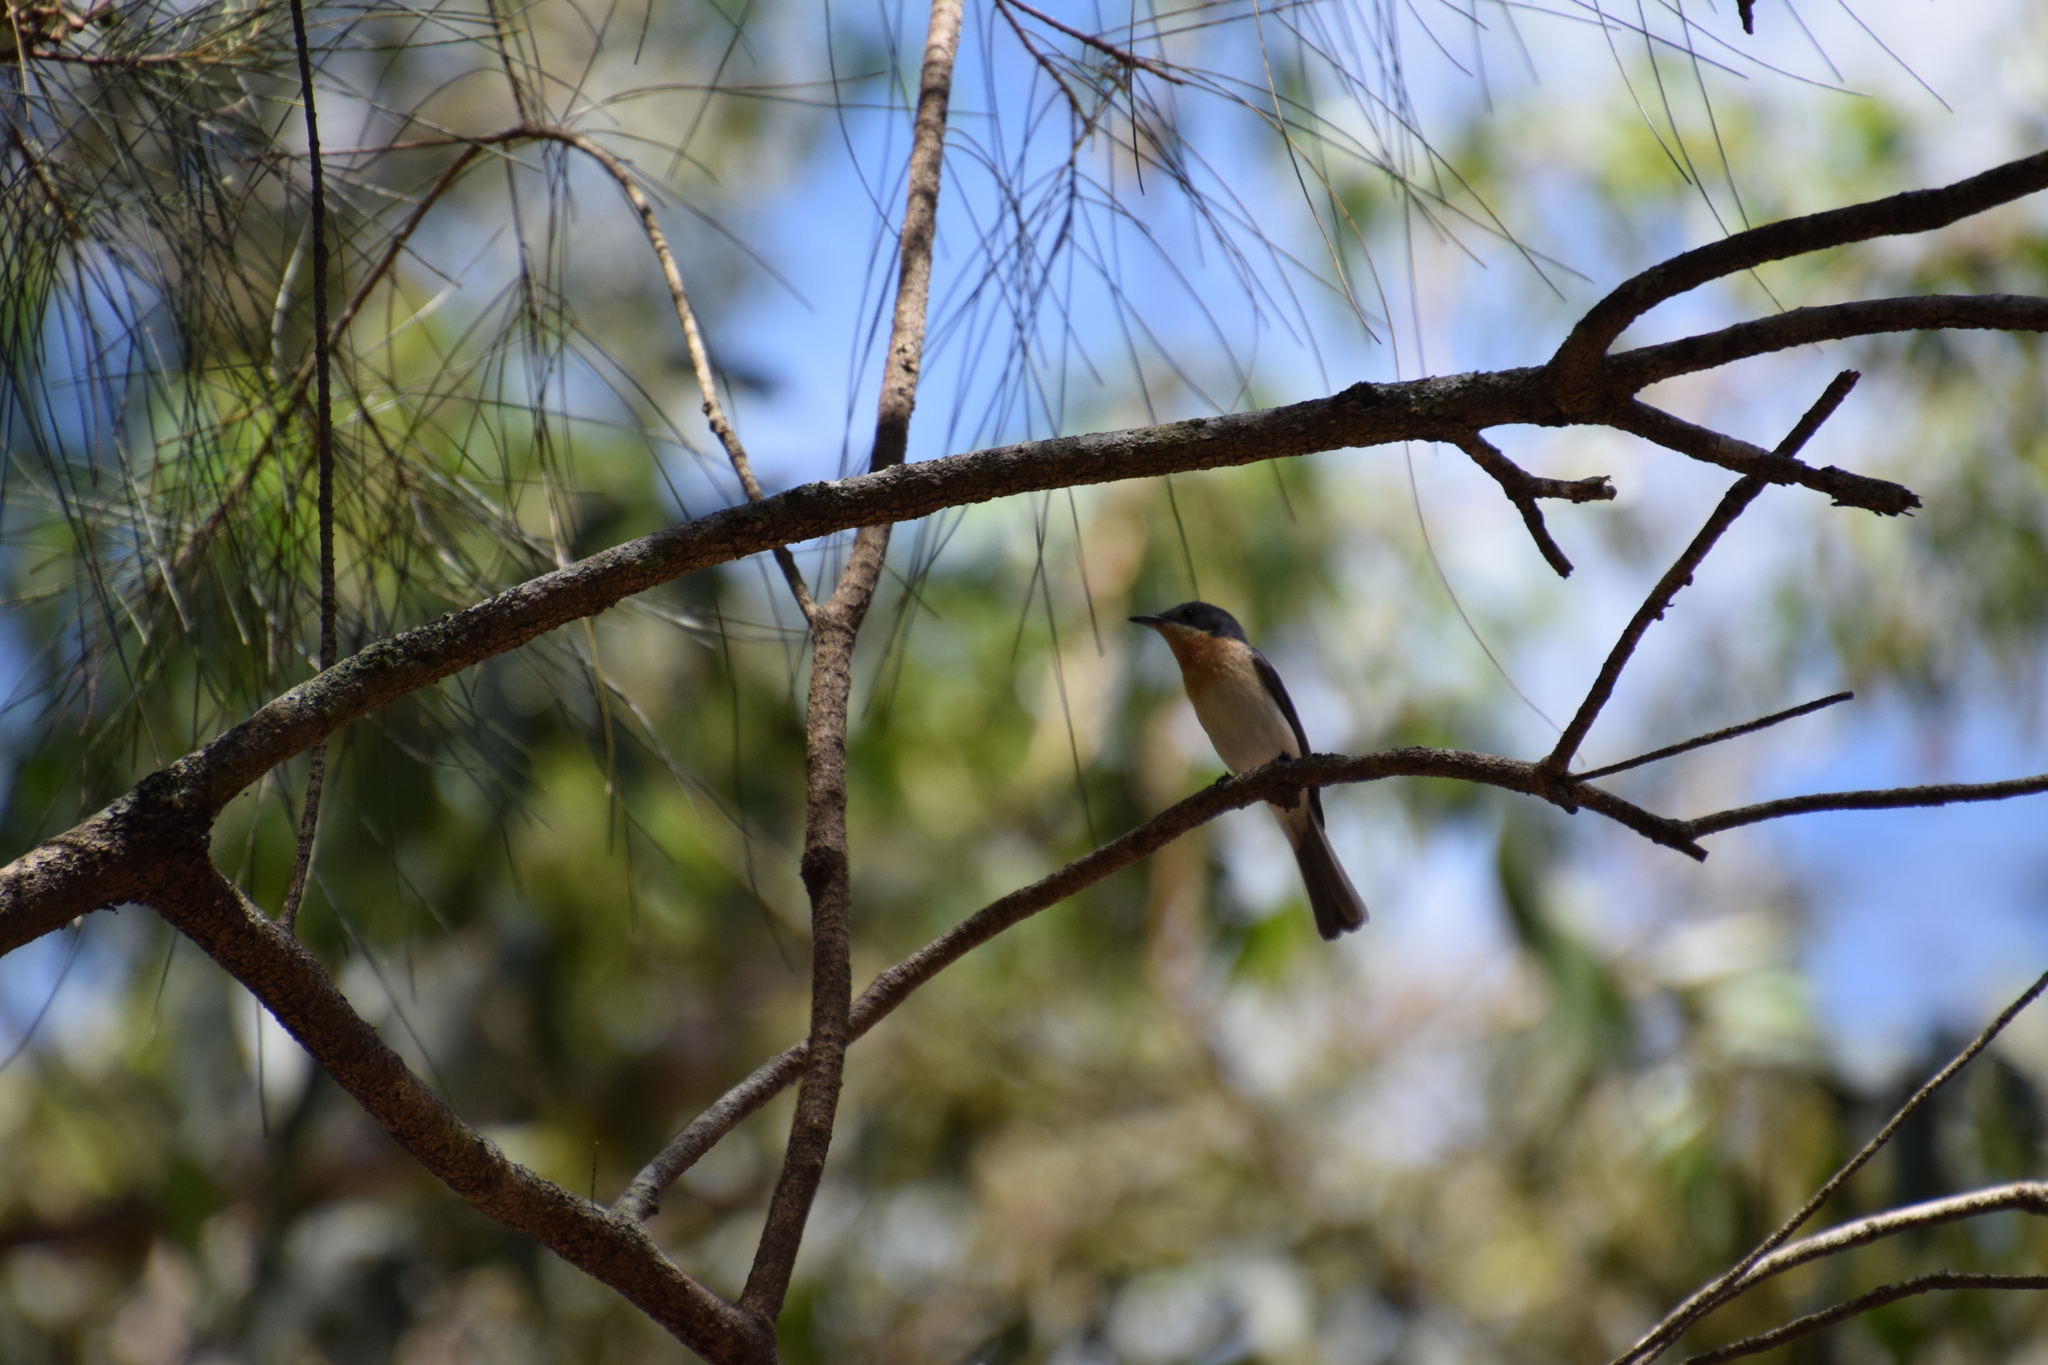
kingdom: Animalia
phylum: Chordata
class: Aves
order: Passeriformes
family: Monarchidae
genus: Myiagra
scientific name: Myiagra rubecula
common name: Leaden flycatcher
